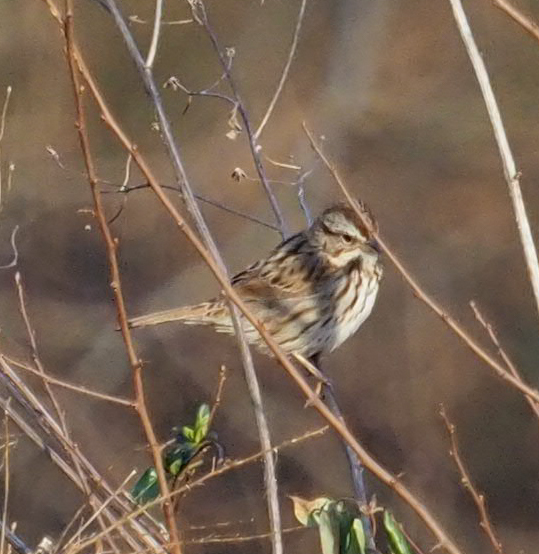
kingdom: Animalia
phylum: Chordata
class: Aves
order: Passeriformes
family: Passerellidae
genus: Melospiza
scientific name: Melospiza melodia
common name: Song sparrow
